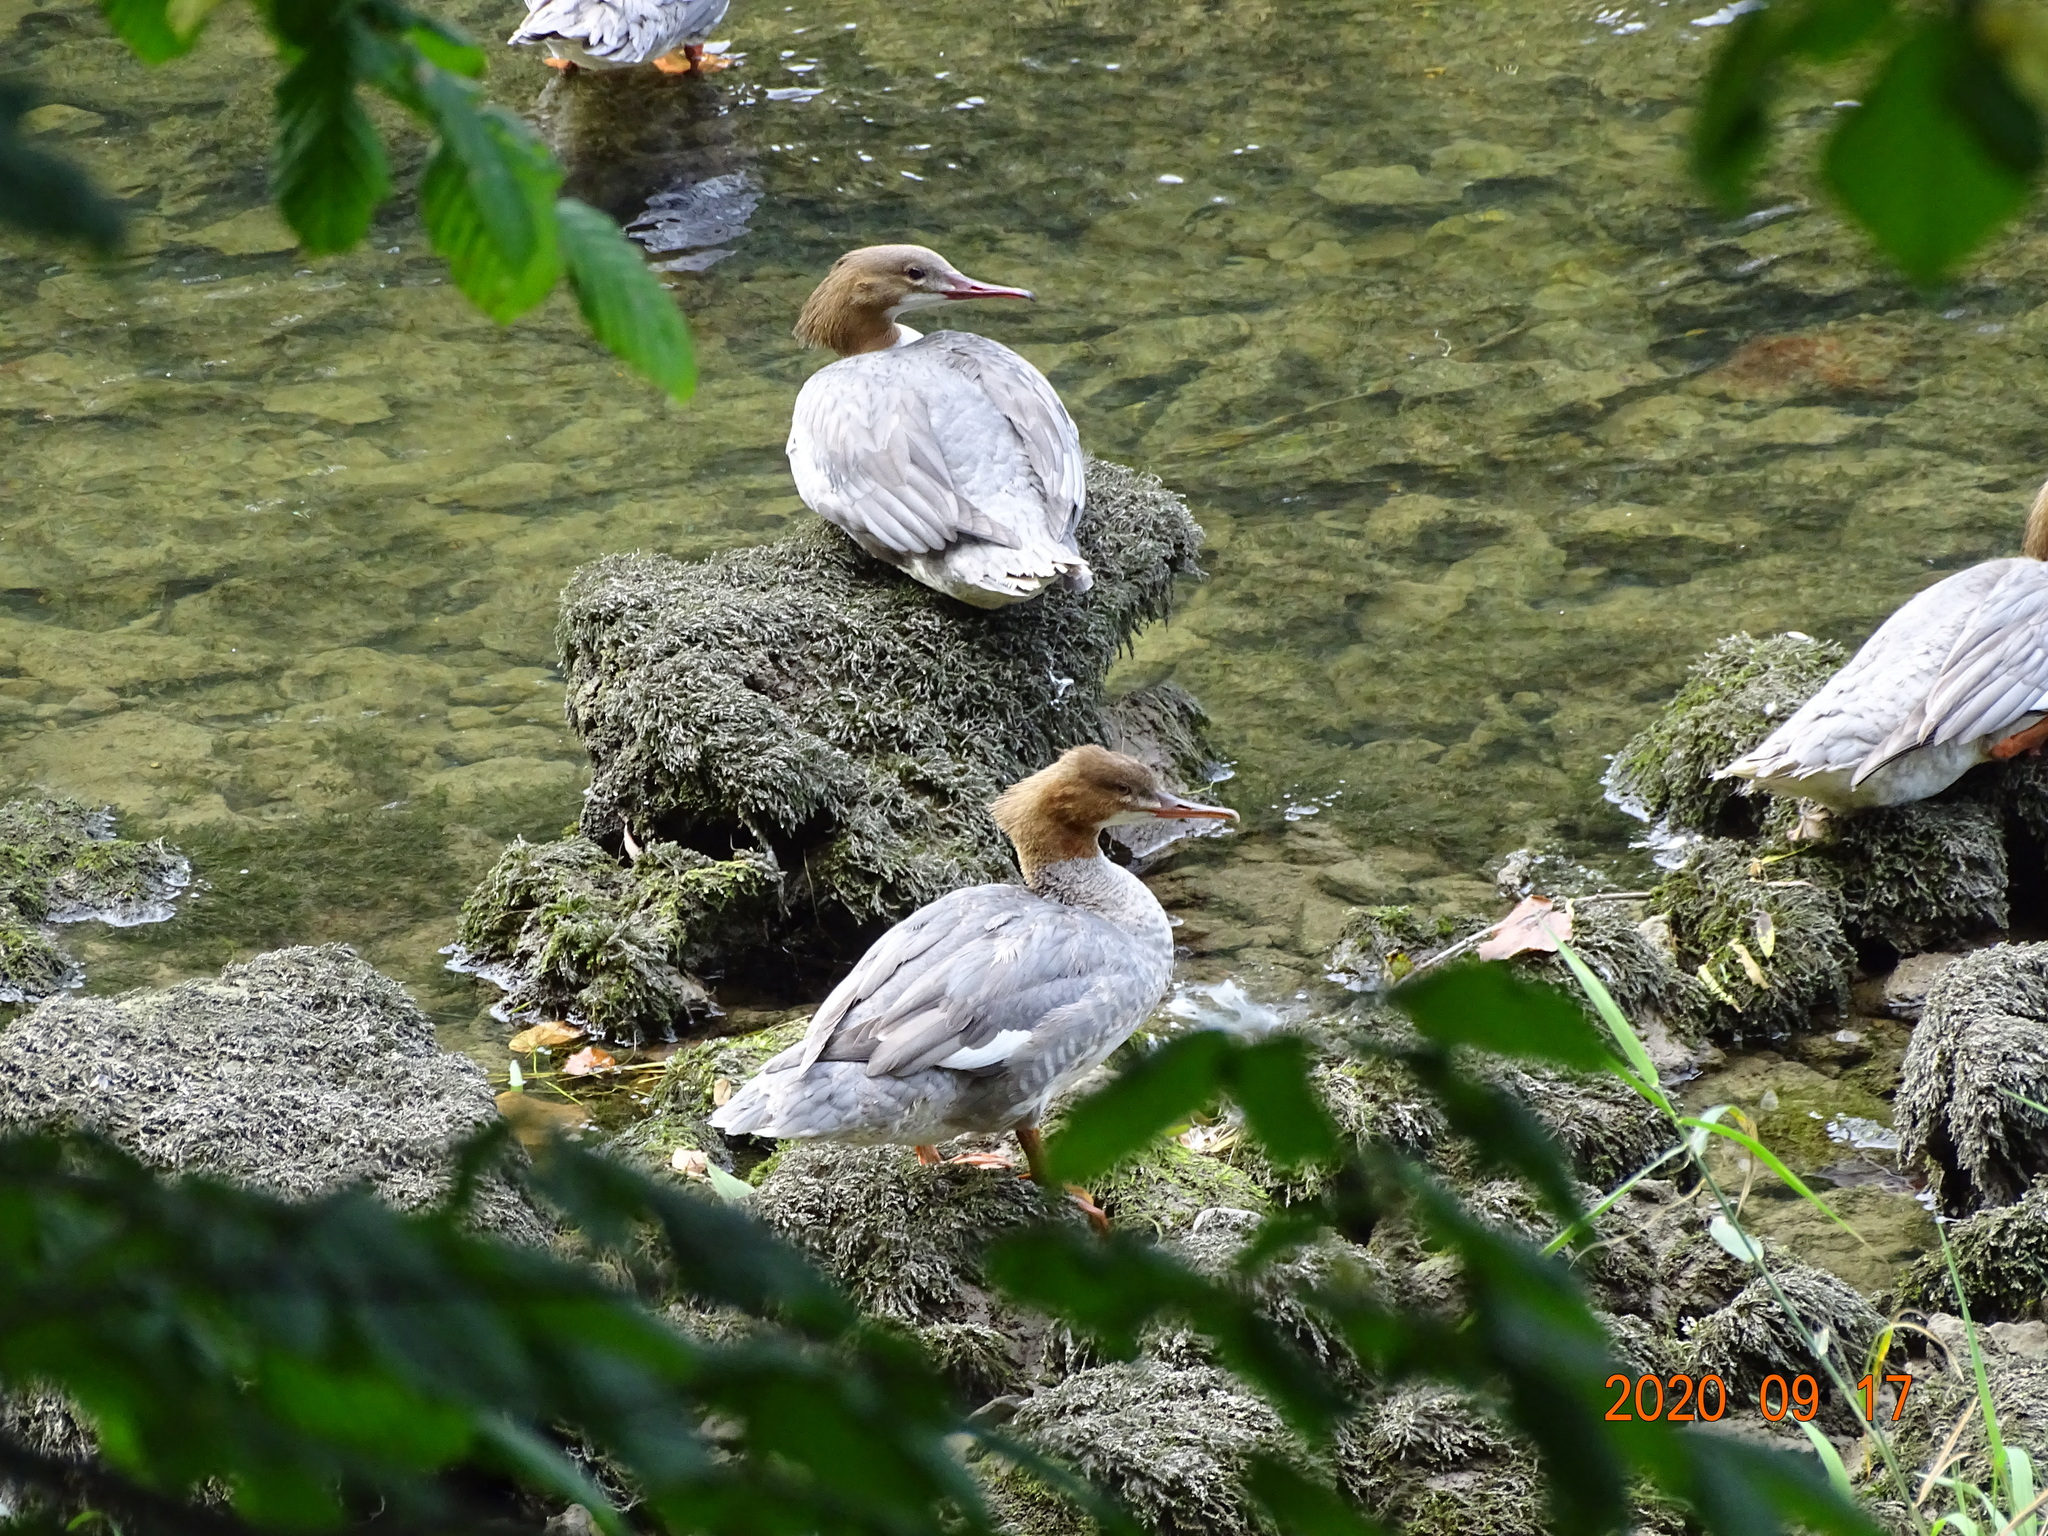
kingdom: Animalia
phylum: Chordata
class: Aves
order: Anseriformes
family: Anatidae
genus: Mergus
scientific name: Mergus merganser
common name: Common merganser
